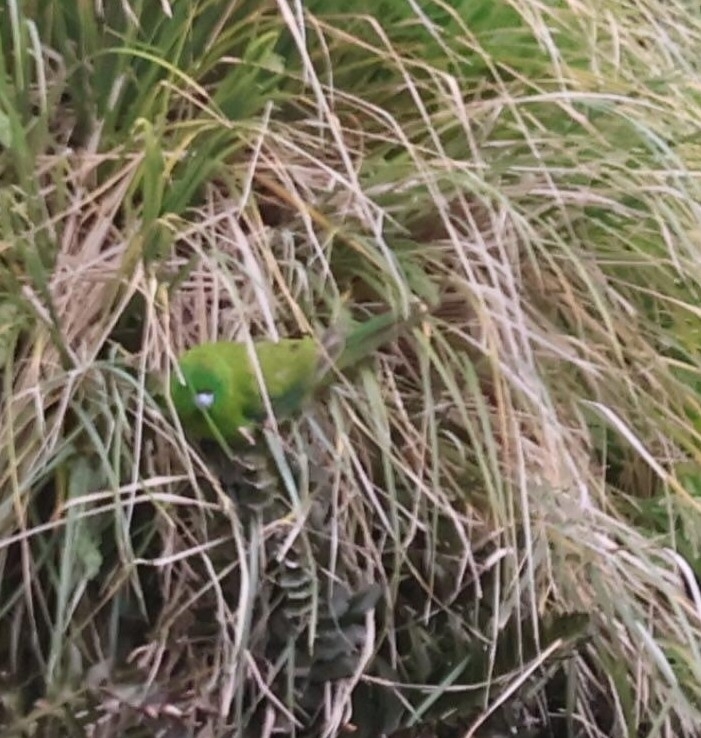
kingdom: Animalia
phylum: Chordata
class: Aves
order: Psittaciformes
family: Psittacidae
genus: Cyanoramphus
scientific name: Cyanoramphus unicolor
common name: Antipodes parakeet
